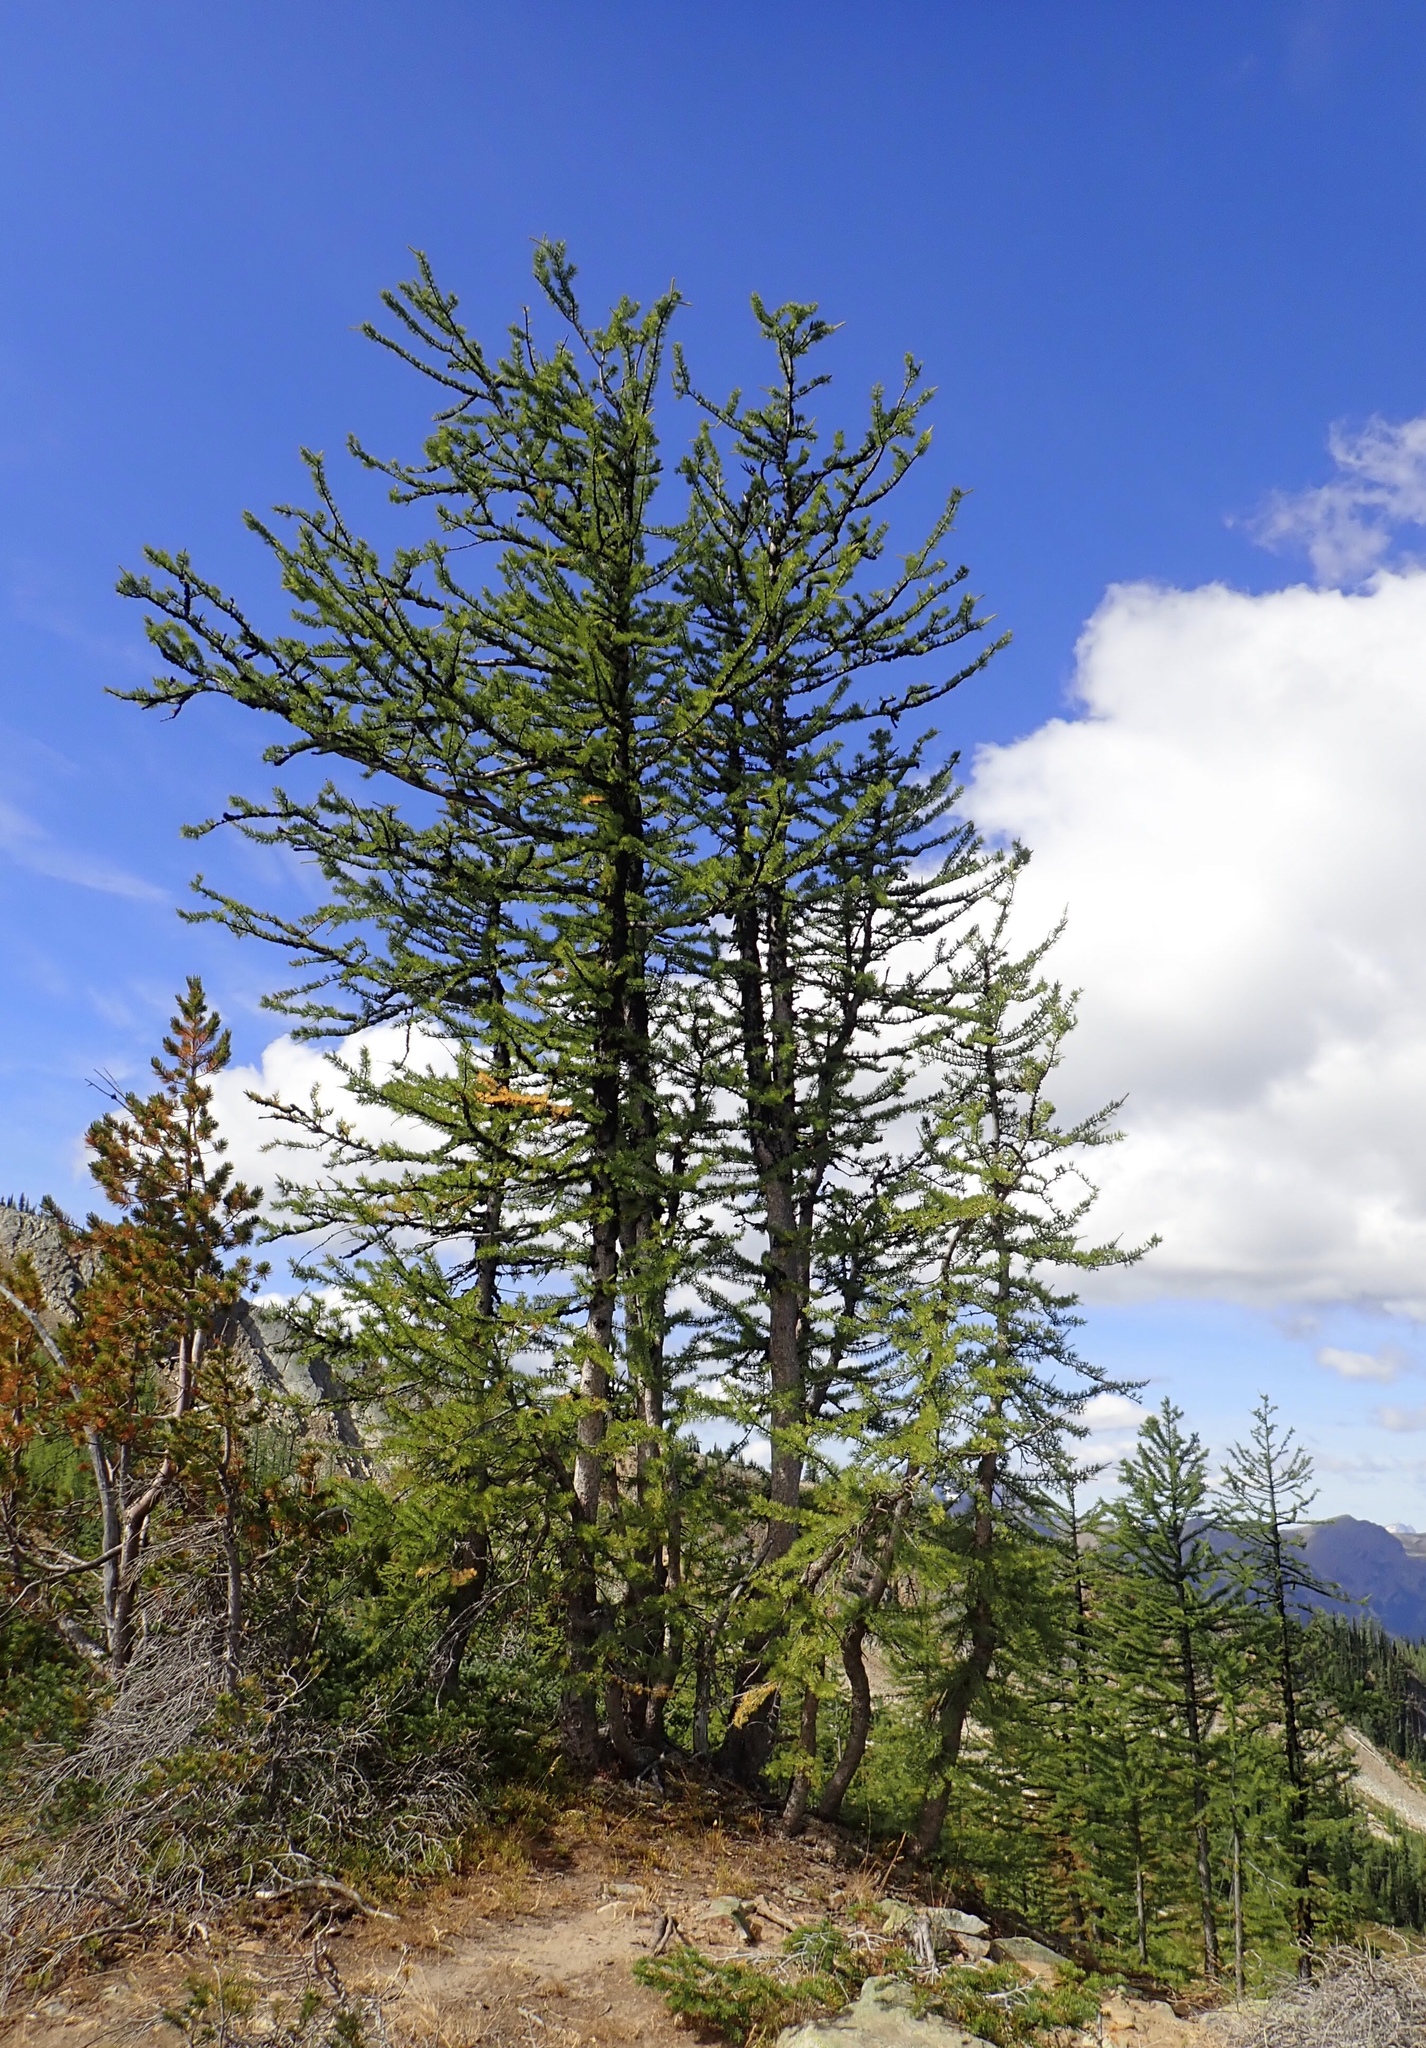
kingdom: Plantae
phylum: Tracheophyta
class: Pinopsida
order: Pinales
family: Pinaceae
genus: Larix
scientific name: Larix lyallii
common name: Alpine larch
